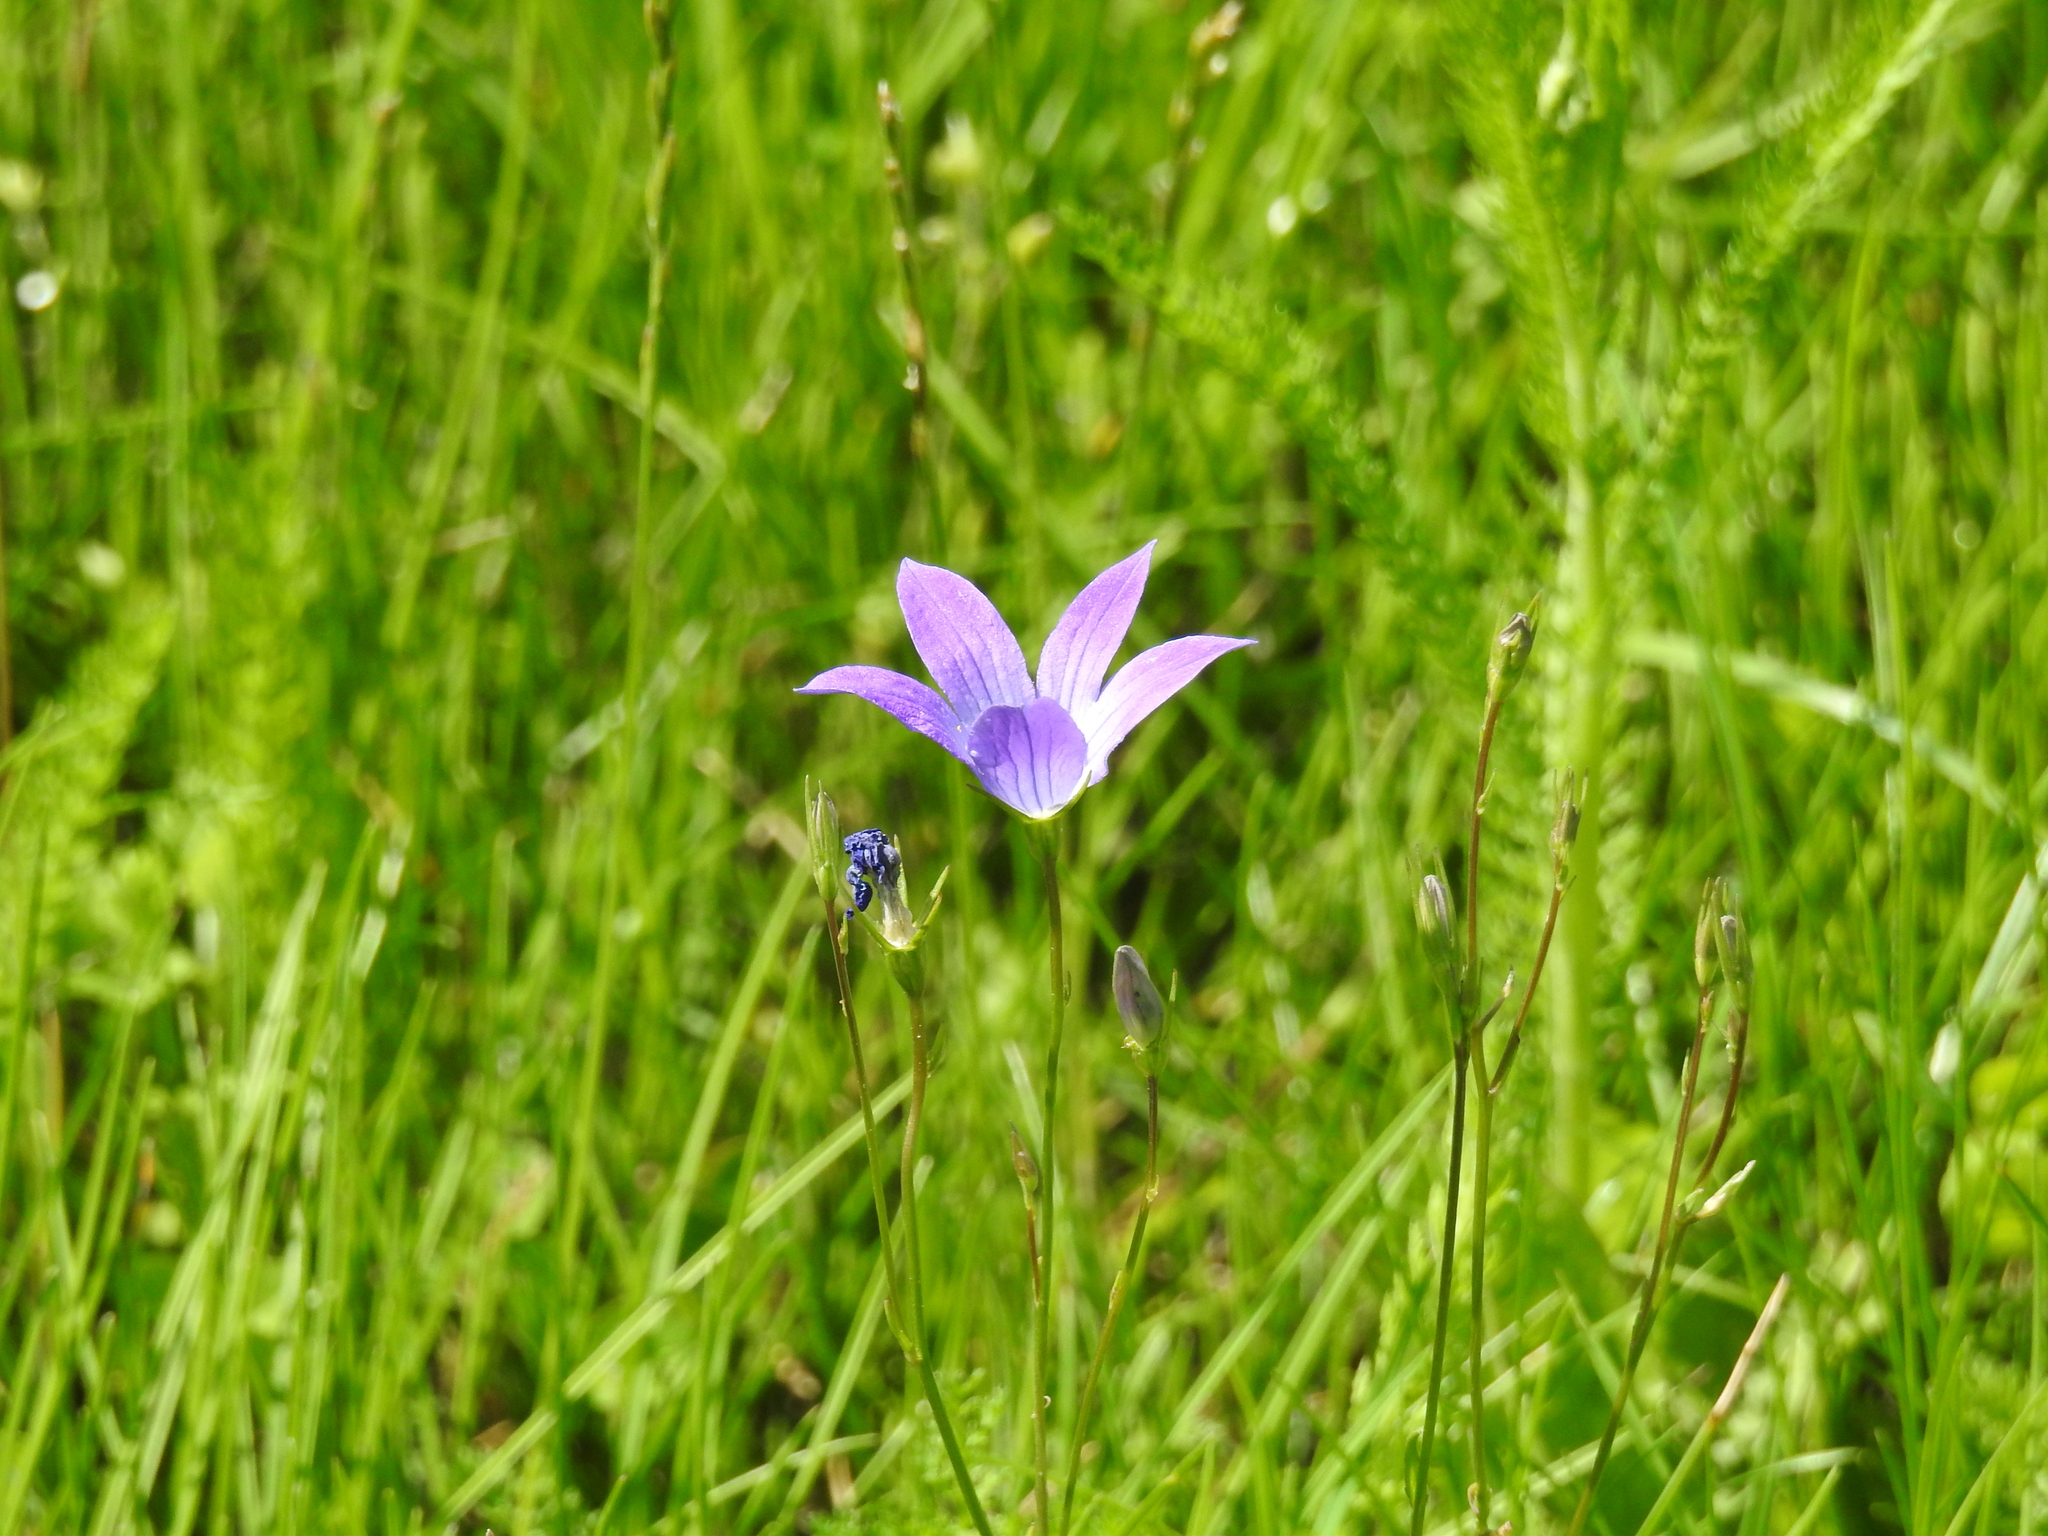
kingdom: Plantae
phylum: Tracheophyta
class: Magnoliopsida
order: Asterales
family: Campanulaceae
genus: Campanula
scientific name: Campanula patula
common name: Spreading bellflower
